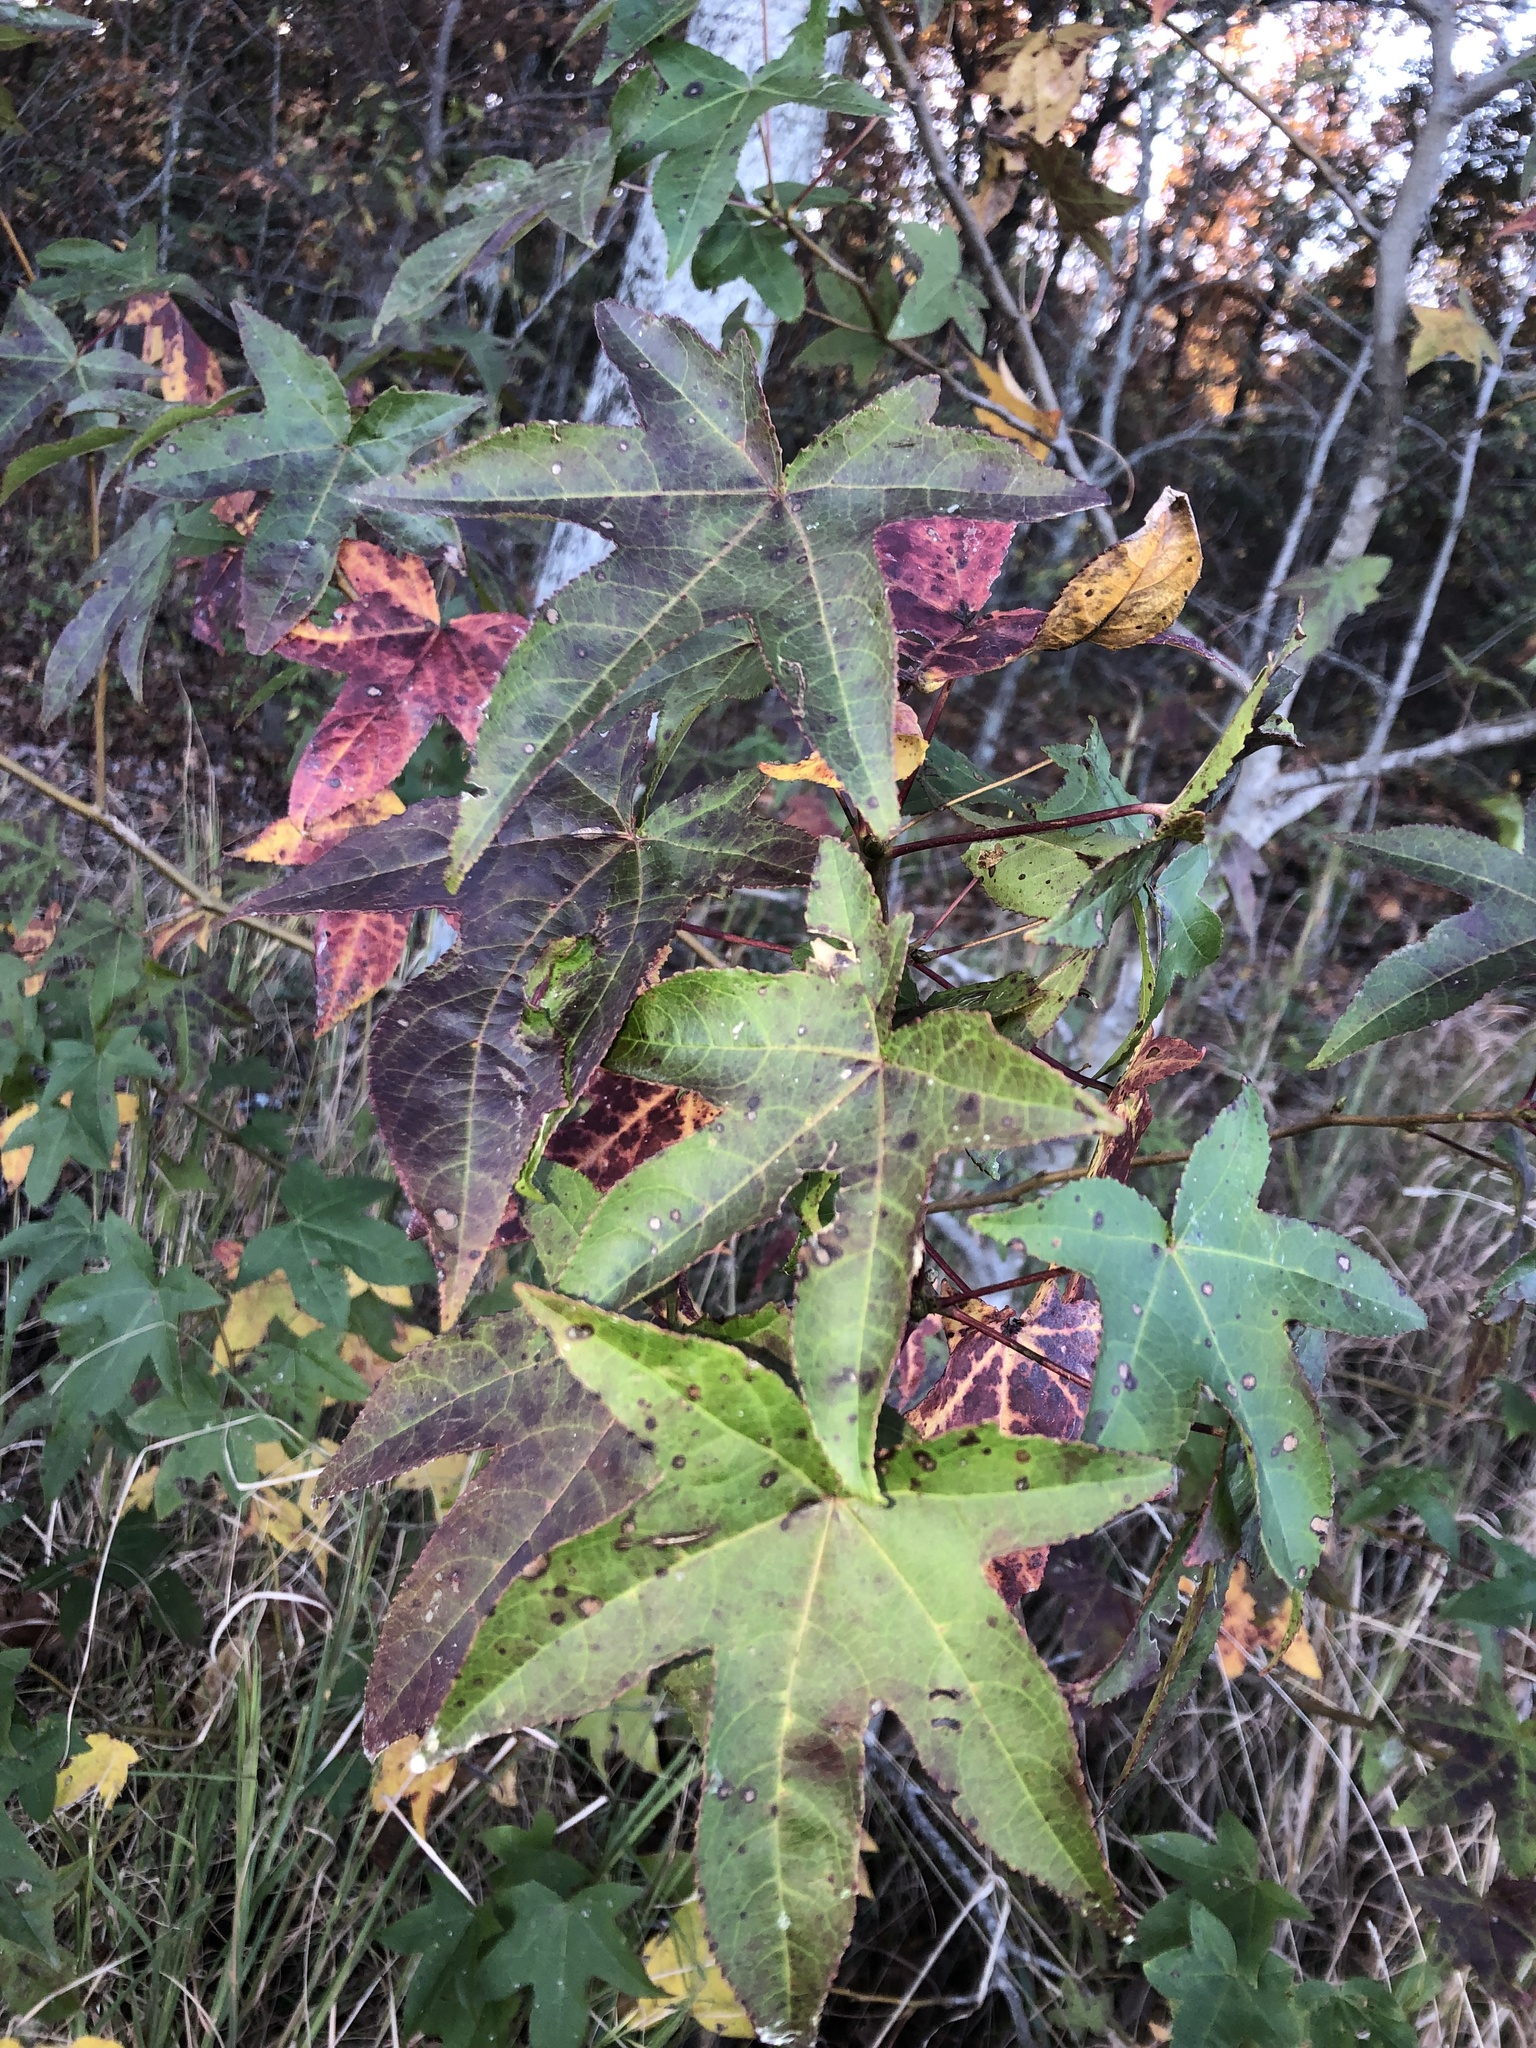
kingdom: Plantae
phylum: Tracheophyta
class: Magnoliopsida
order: Saxifragales
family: Altingiaceae
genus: Liquidambar
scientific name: Liquidambar styraciflua
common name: Sweet gum
